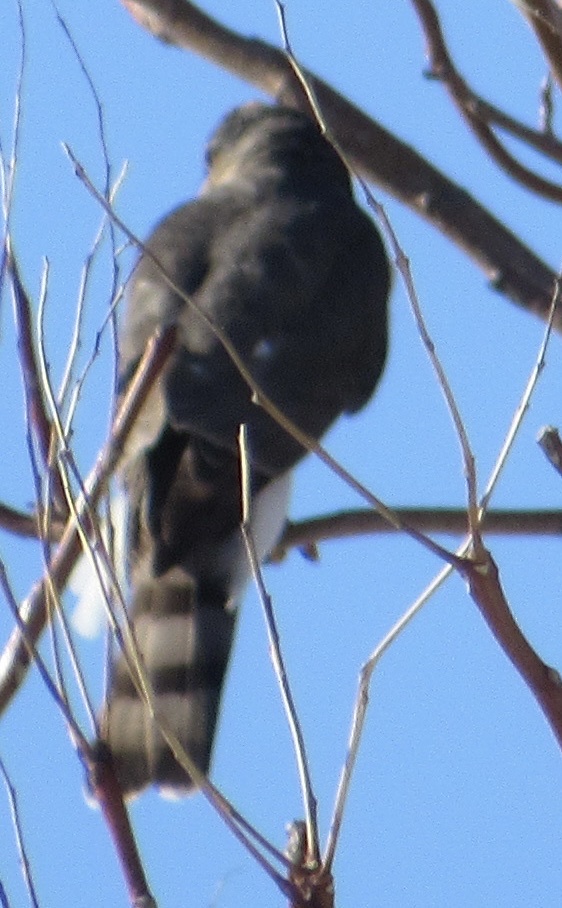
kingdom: Animalia
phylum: Chordata
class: Aves
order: Accipitriformes
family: Accipitridae
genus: Accipiter
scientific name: Accipiter striatus
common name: Sharp-shinned hawk
